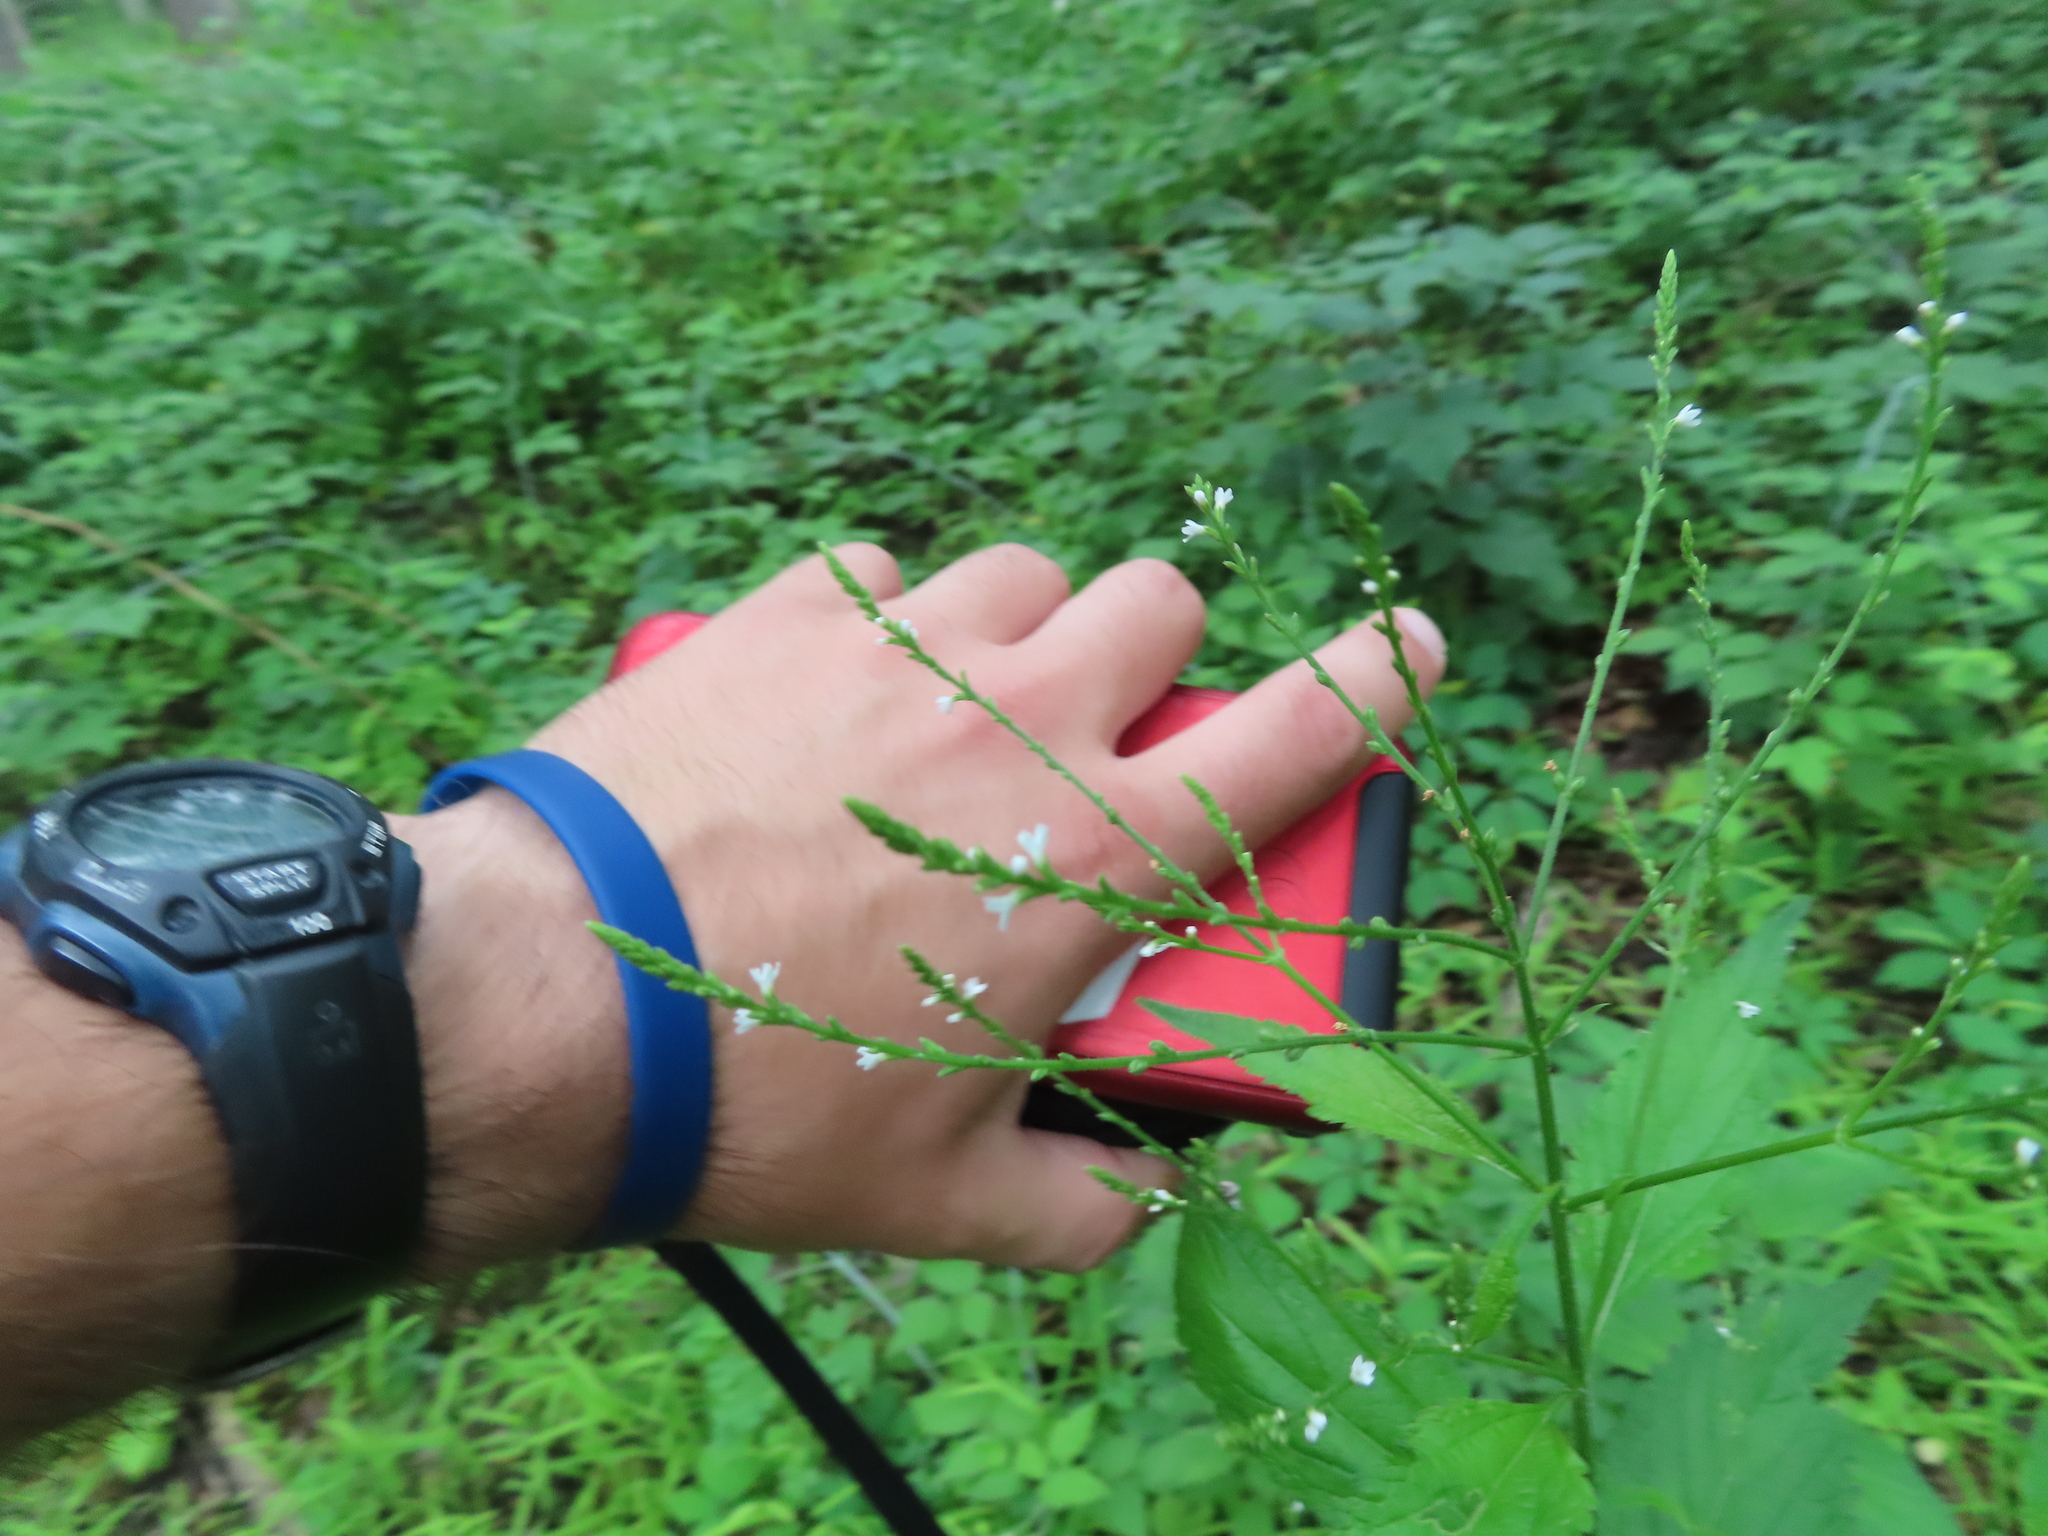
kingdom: Plantae
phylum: Tracheophyta
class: Magnoliopsida
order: Lamiales
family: Verbenaceae
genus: Verbena
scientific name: Verbena urticifolia
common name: Nettle-leaved vervain
